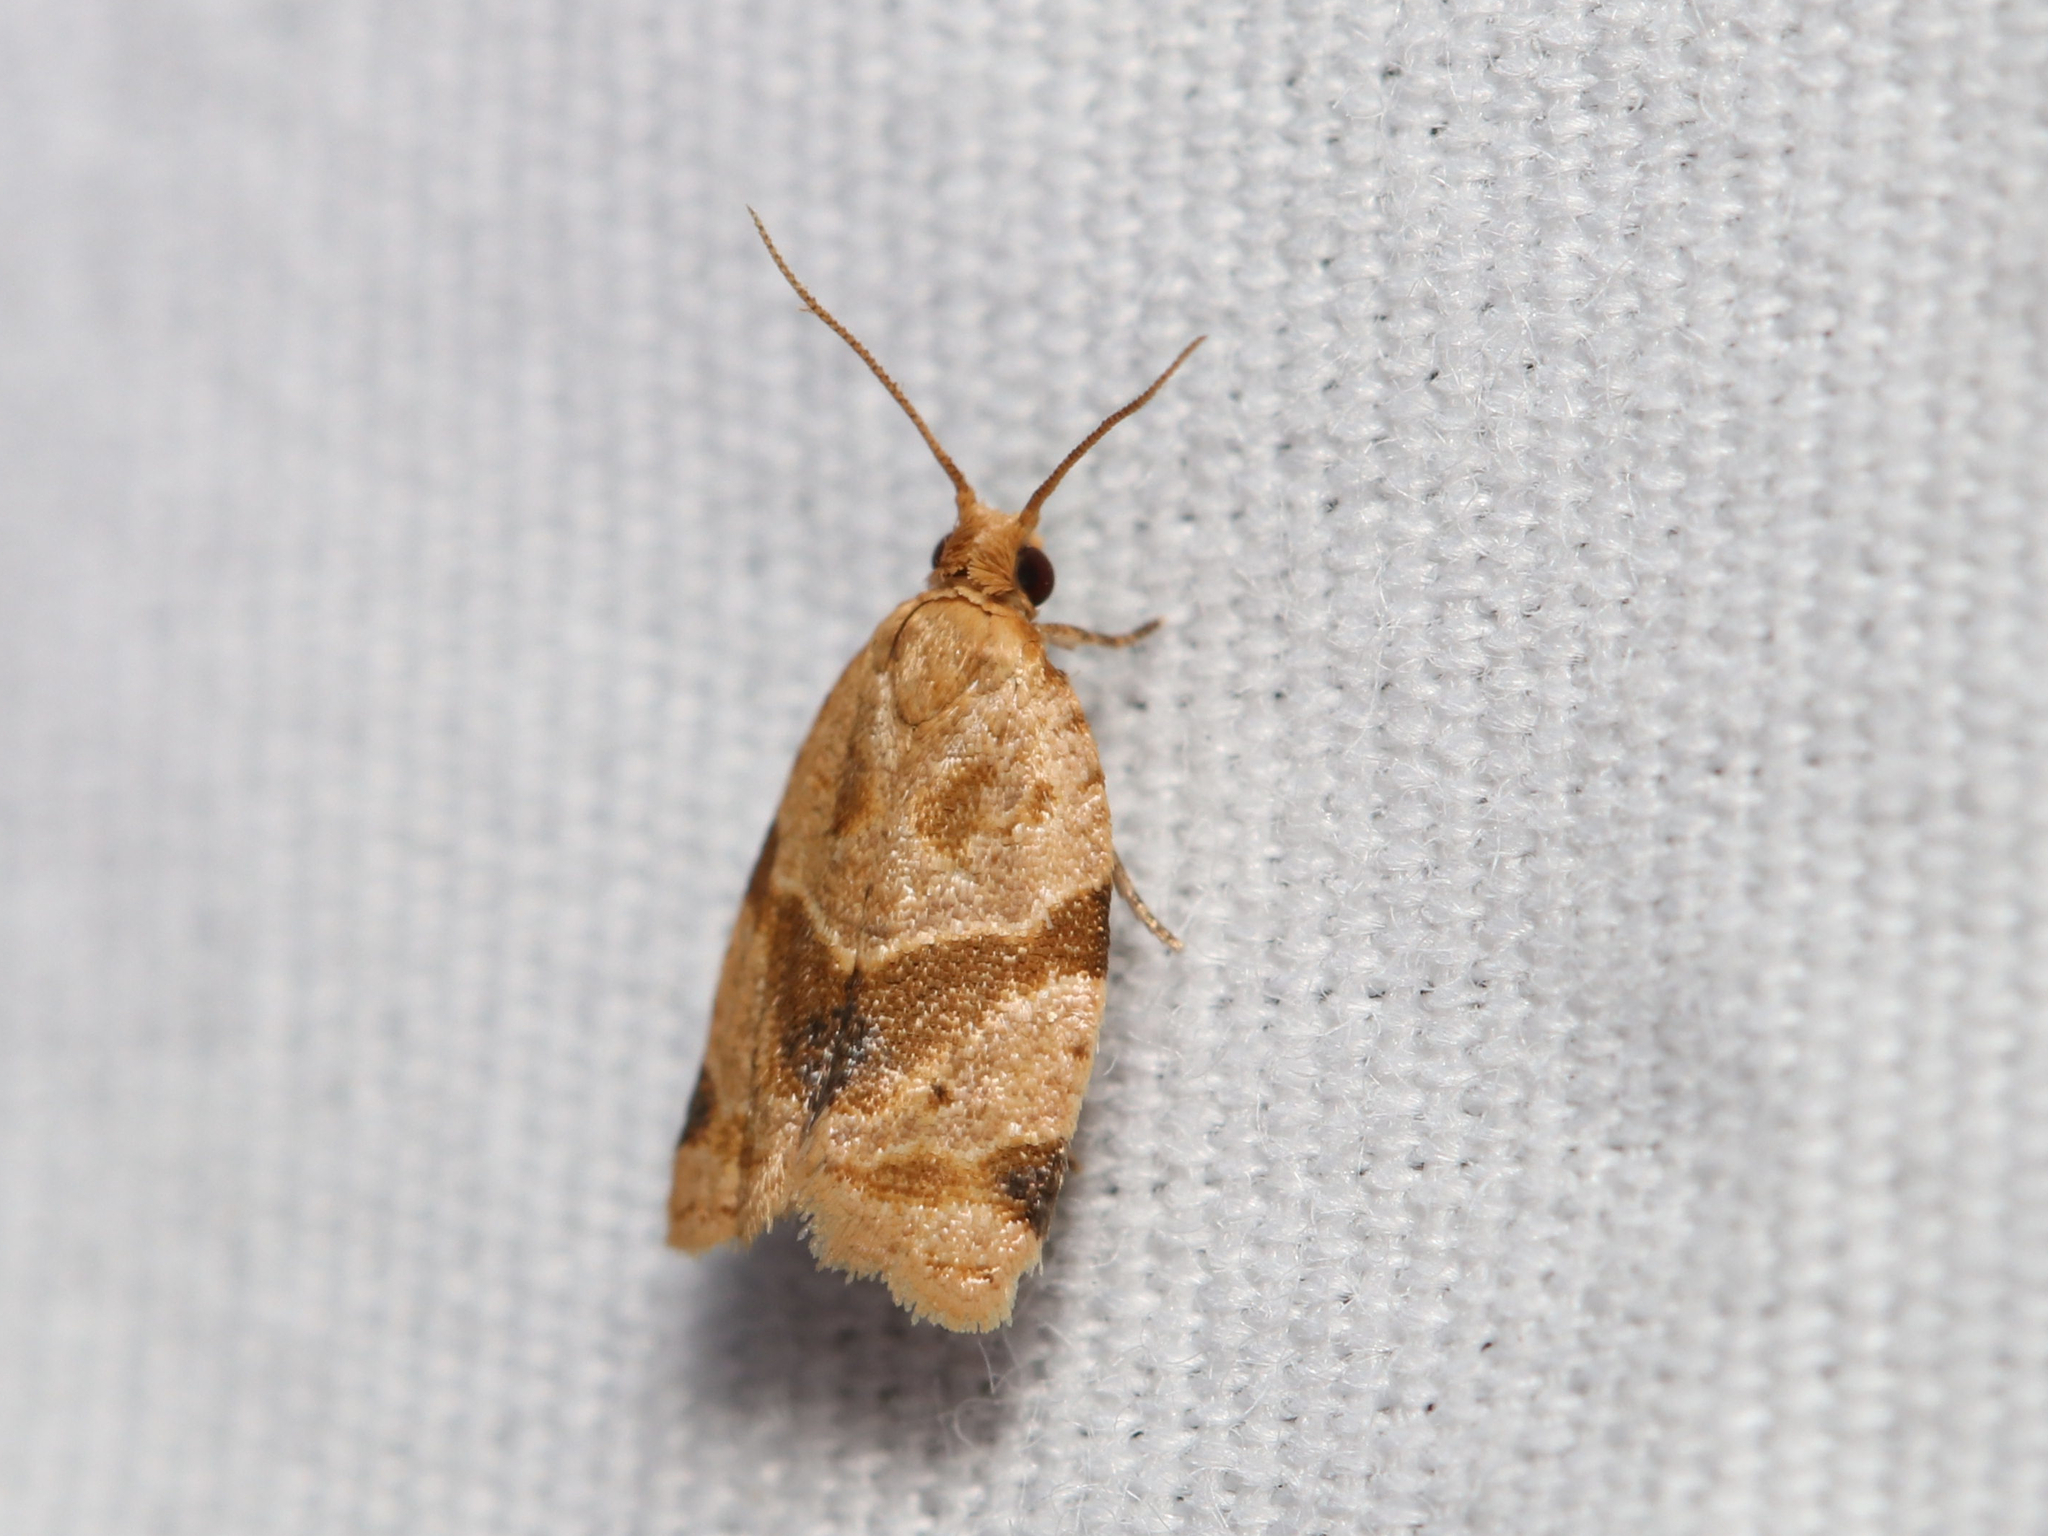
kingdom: Animalia
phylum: Arthropoda
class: Insecta
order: Lepidoptera
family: Tortricidae
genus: Clepsis
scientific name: Clepsis peritana
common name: Garden tortrix
